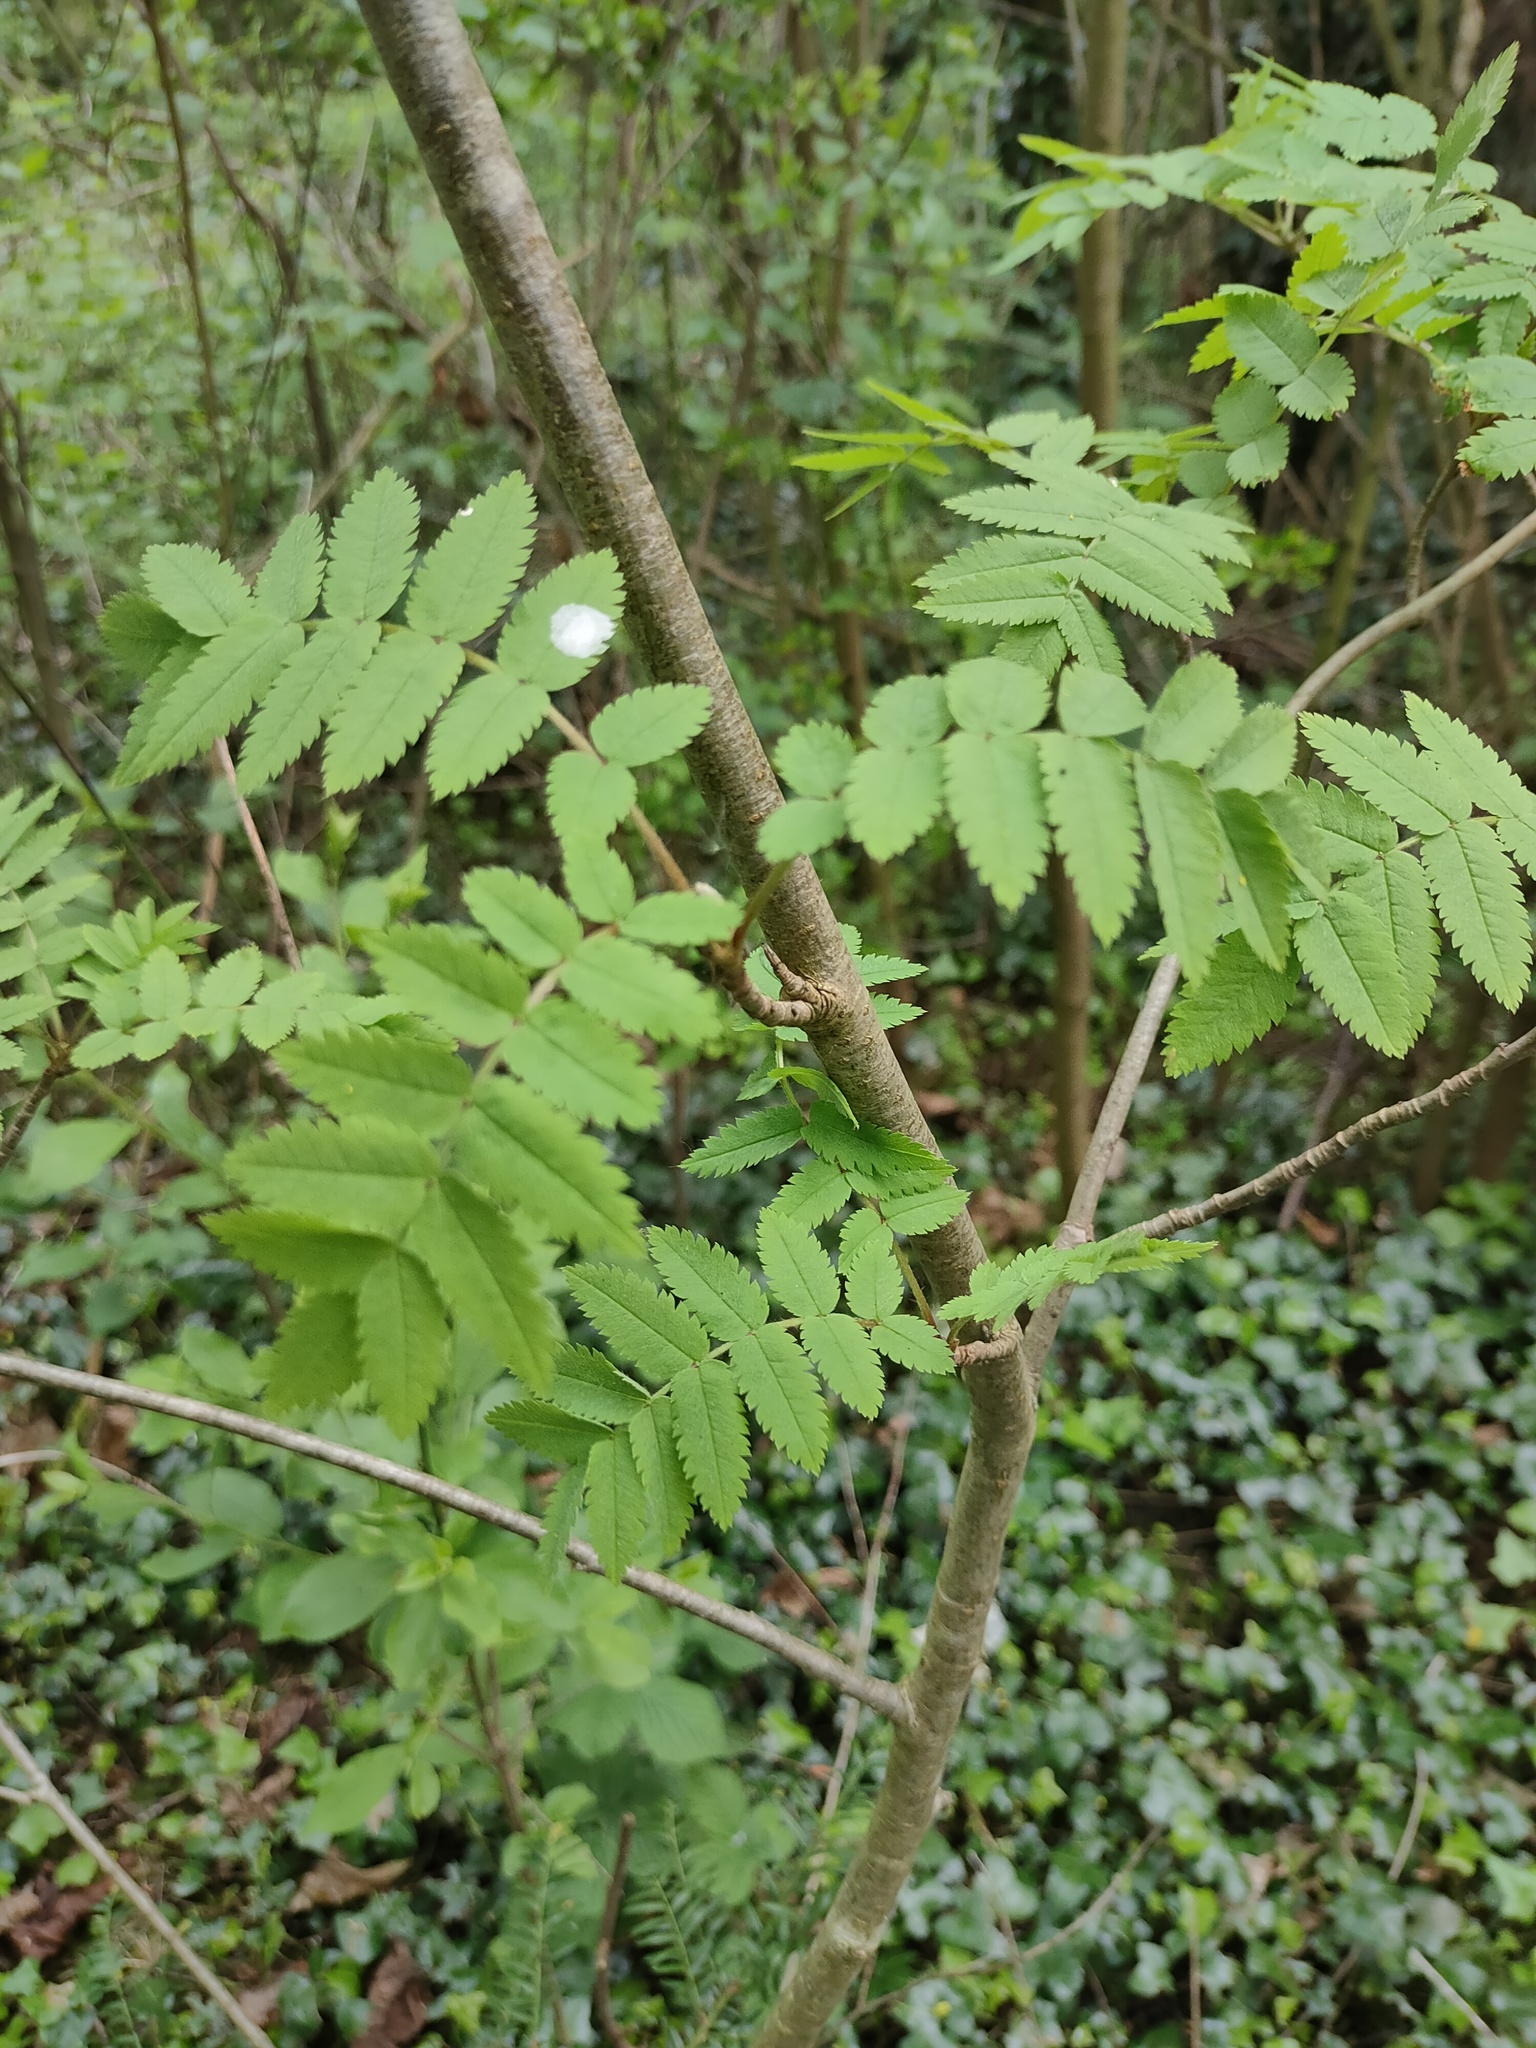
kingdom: Plantae
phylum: Tracheophyta
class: Magnoliopsida
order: Rosales
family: Rosaceae
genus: Sorbus
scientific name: Sorbus aucuparia
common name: Rowan
